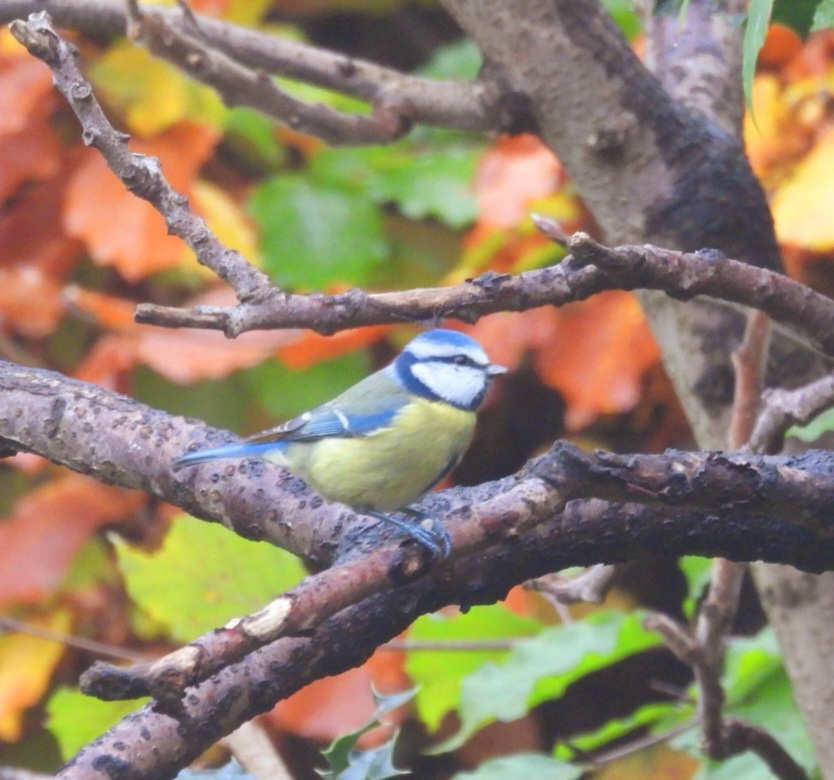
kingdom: Animalia
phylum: Chordata
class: Aves
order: Passeriformes
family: Paridae
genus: Cyanistes
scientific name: Cyanistes caeruleus
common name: Eurasian blue tit
